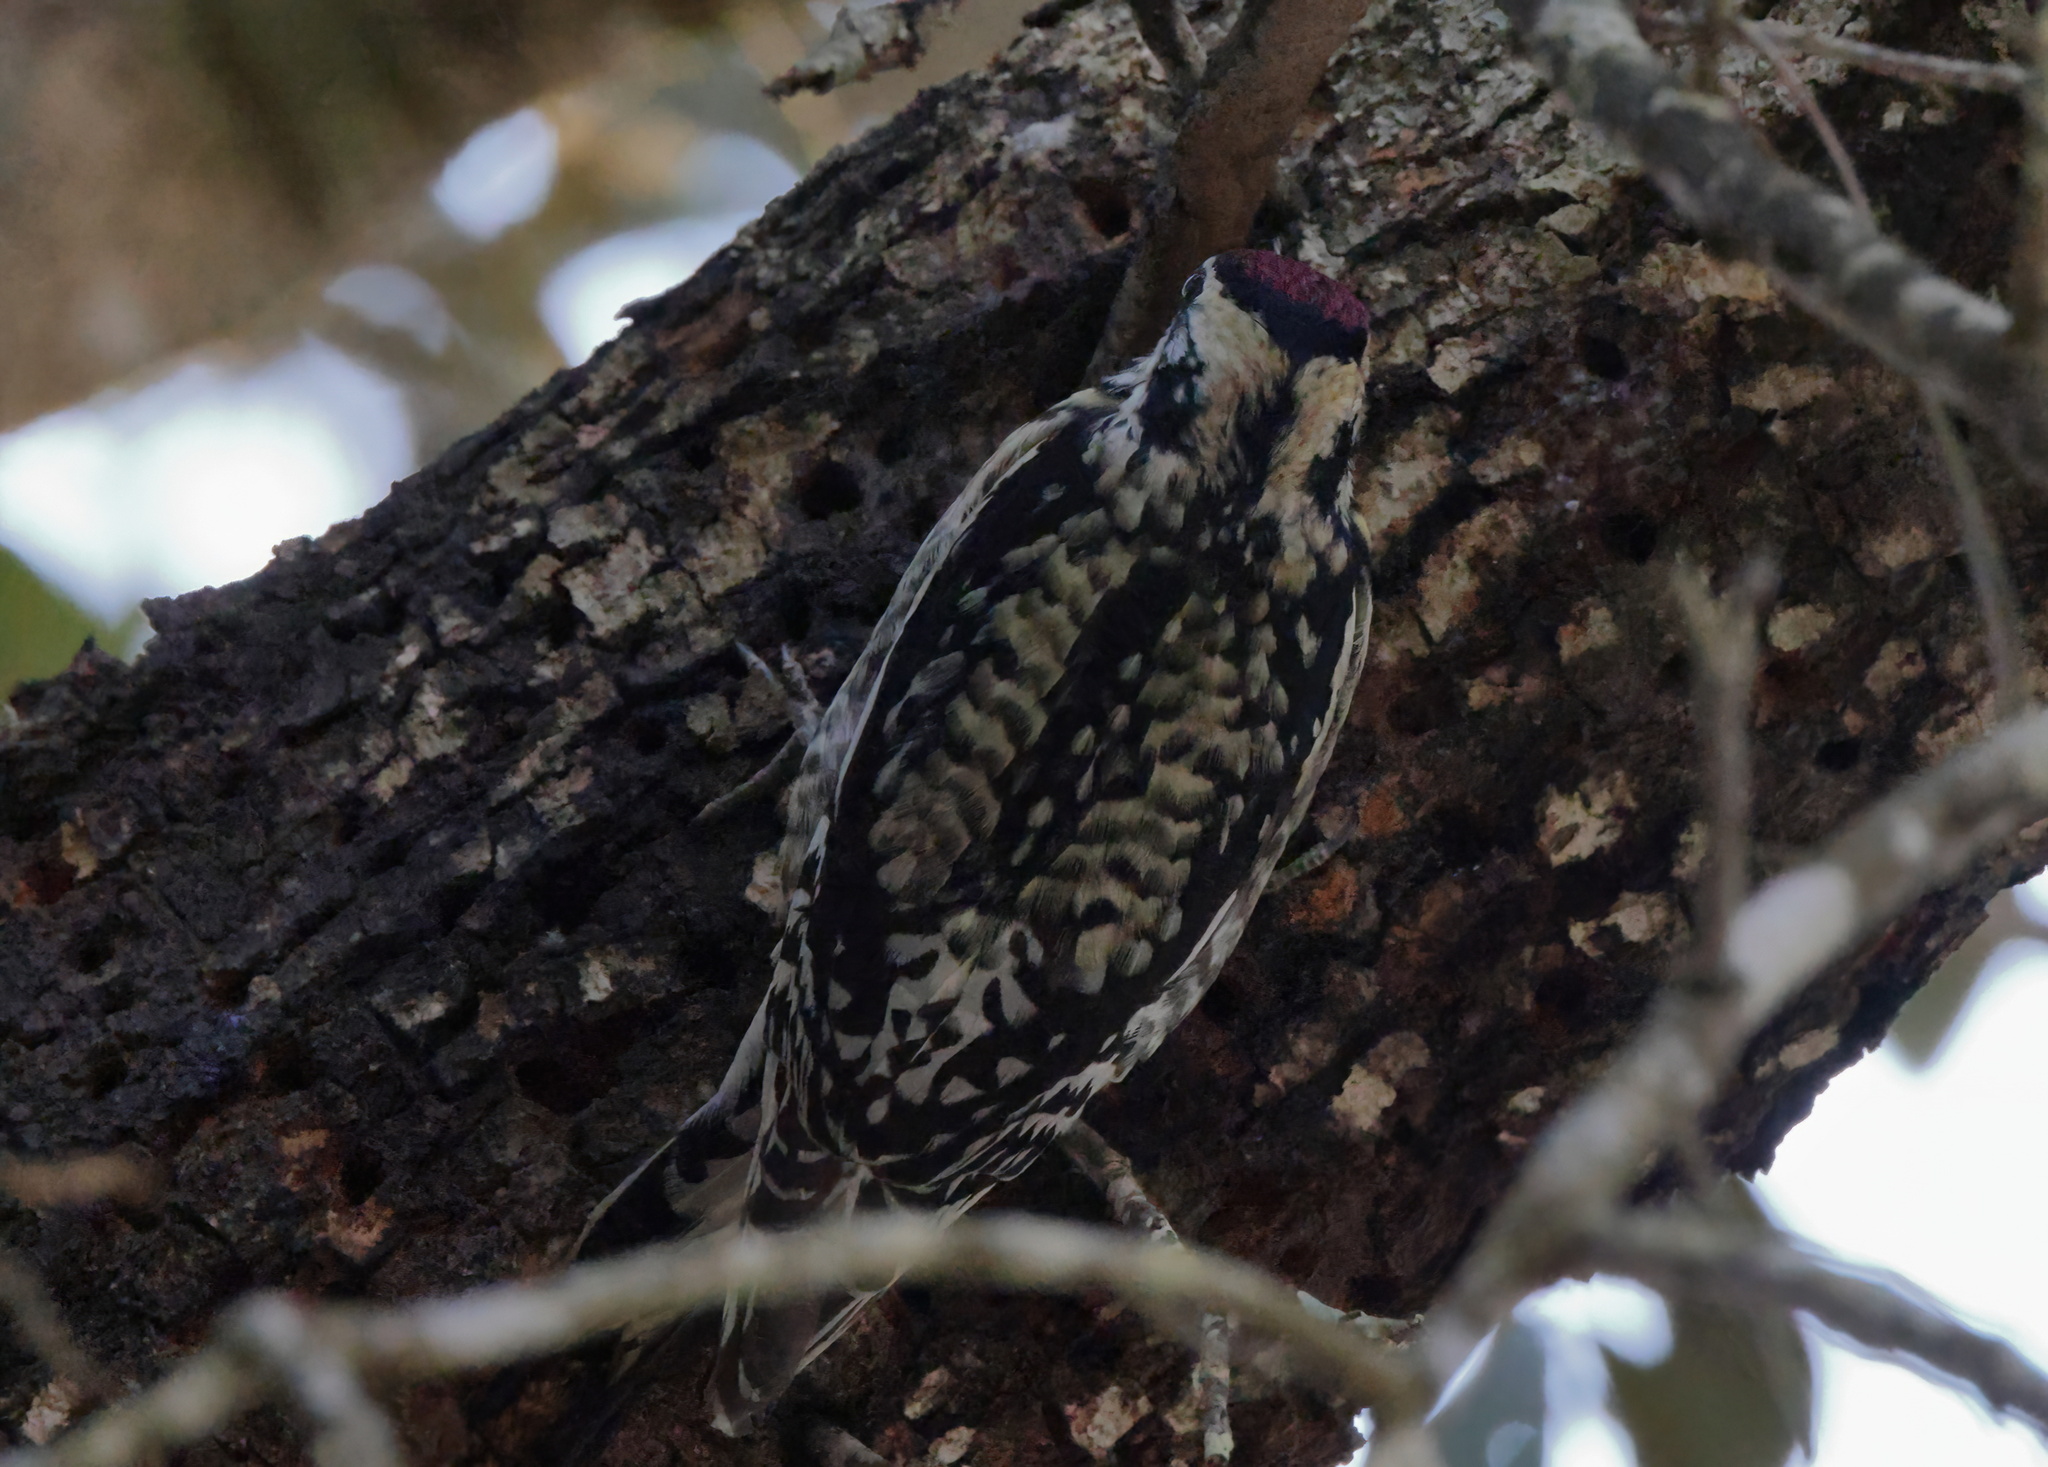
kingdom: Animalia
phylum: Chordata
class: Aves
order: Piciformes
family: Picidae
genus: Sphyrapicus
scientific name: Sphyrapicus varius
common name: Yellow-bellied sapsucker
